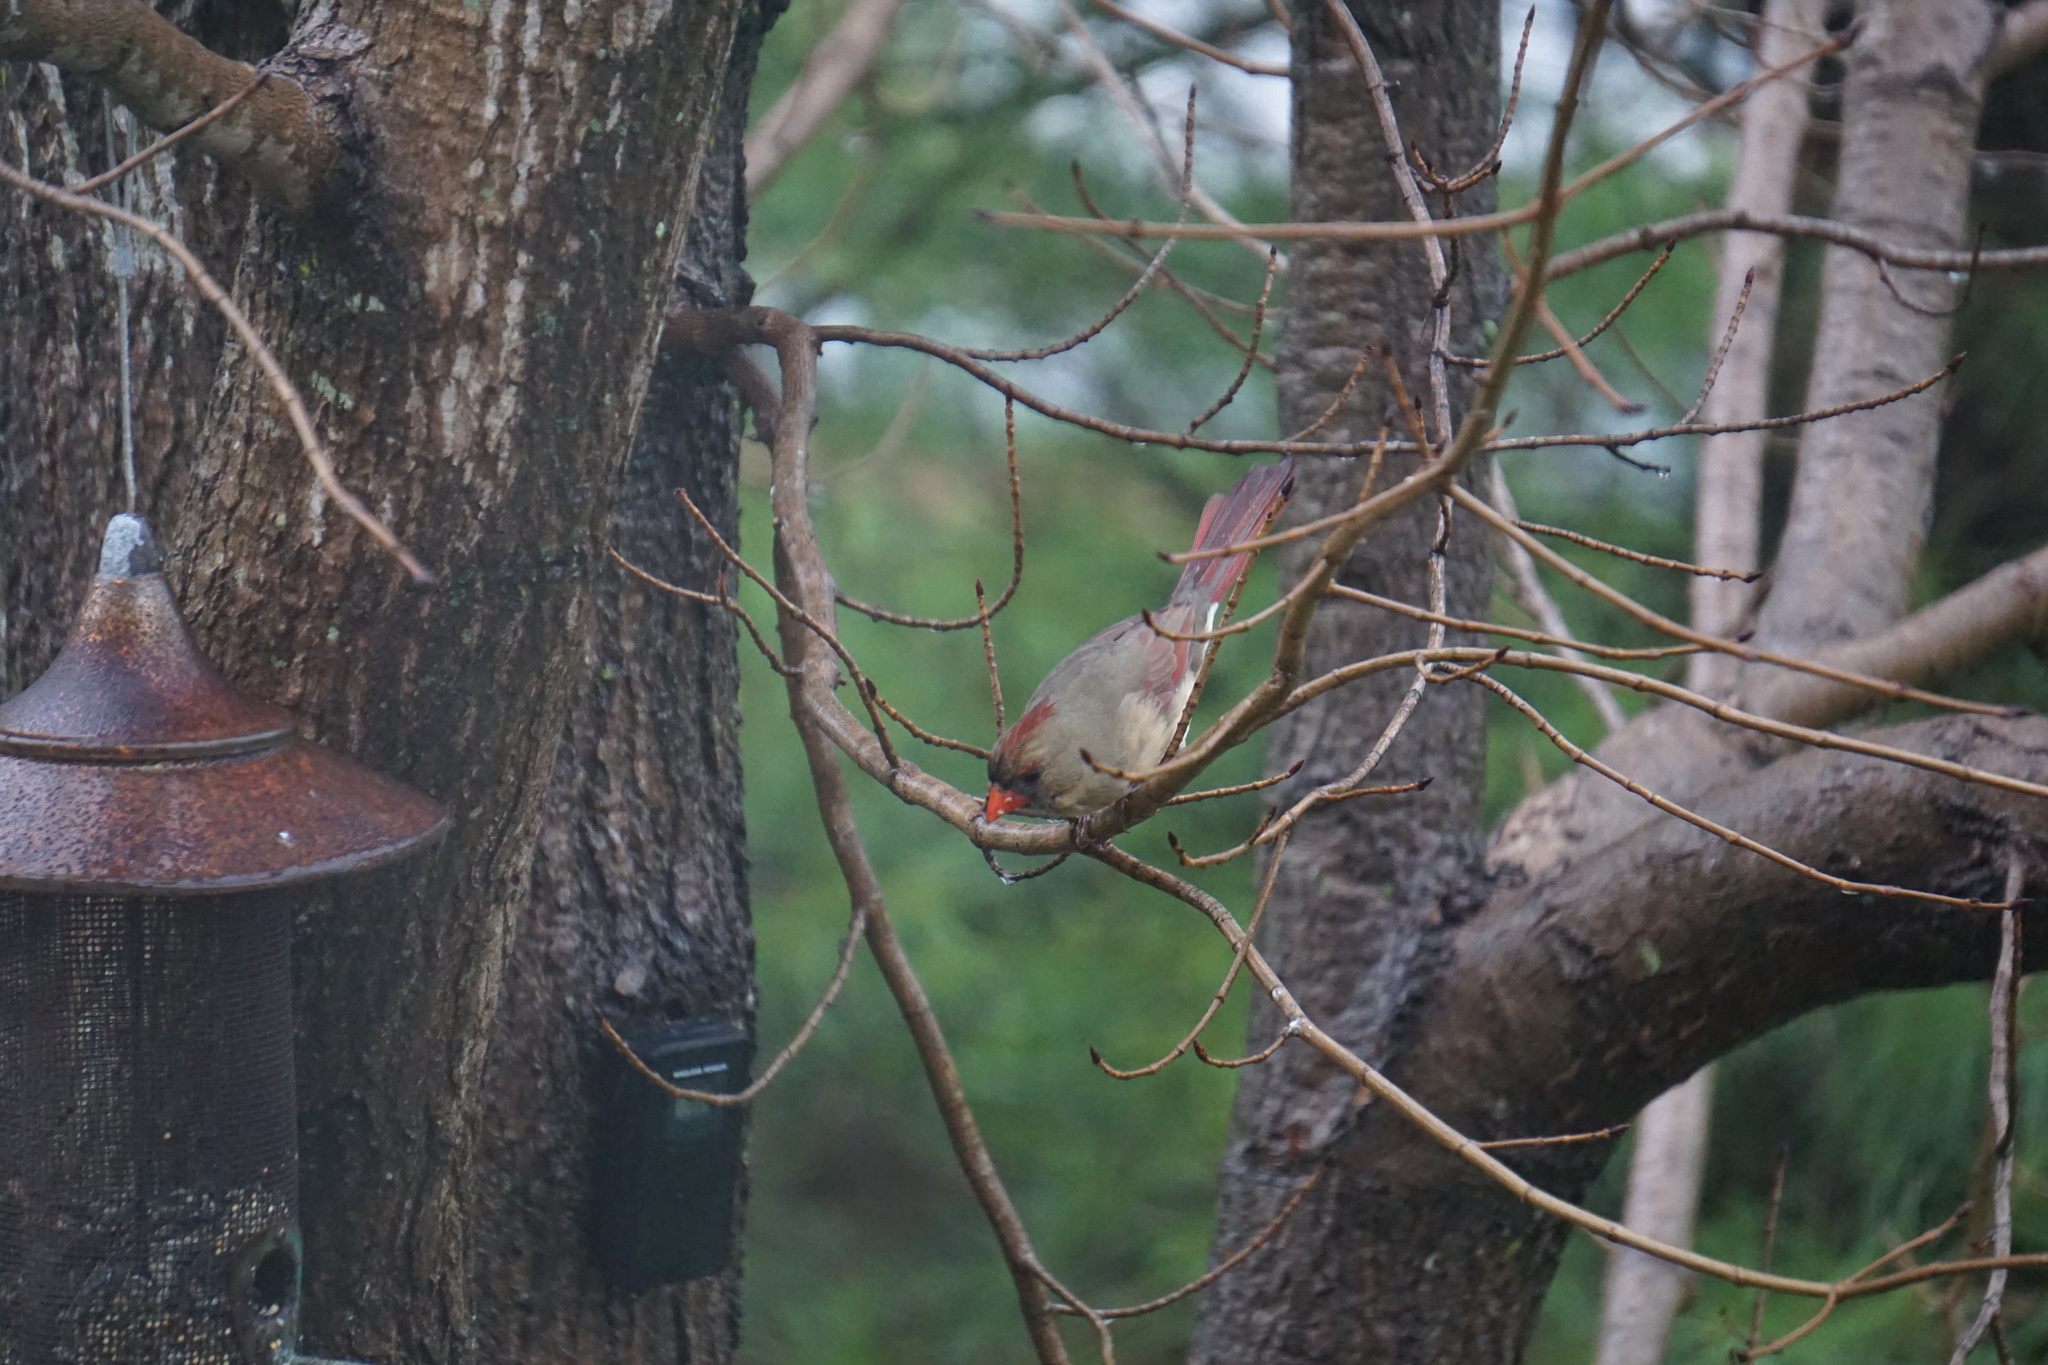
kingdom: Animalia
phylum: Chordata
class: Aves
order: Passeriformes
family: Cardinalidae
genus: Cardinalis
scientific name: Cardinalis cardinalis
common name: Northern cardinal
